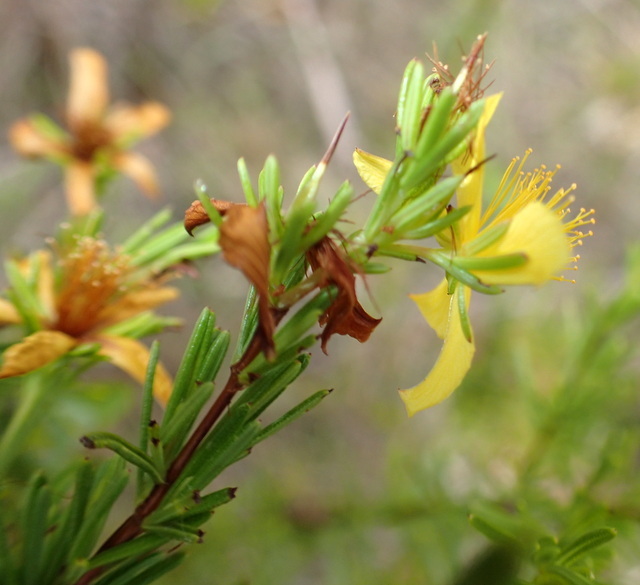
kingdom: Plantae
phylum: Tracheophyta
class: Magnoliopsida
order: Malpighiales
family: Hypericaceae
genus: Hypericum
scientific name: Hypericum nitidum
